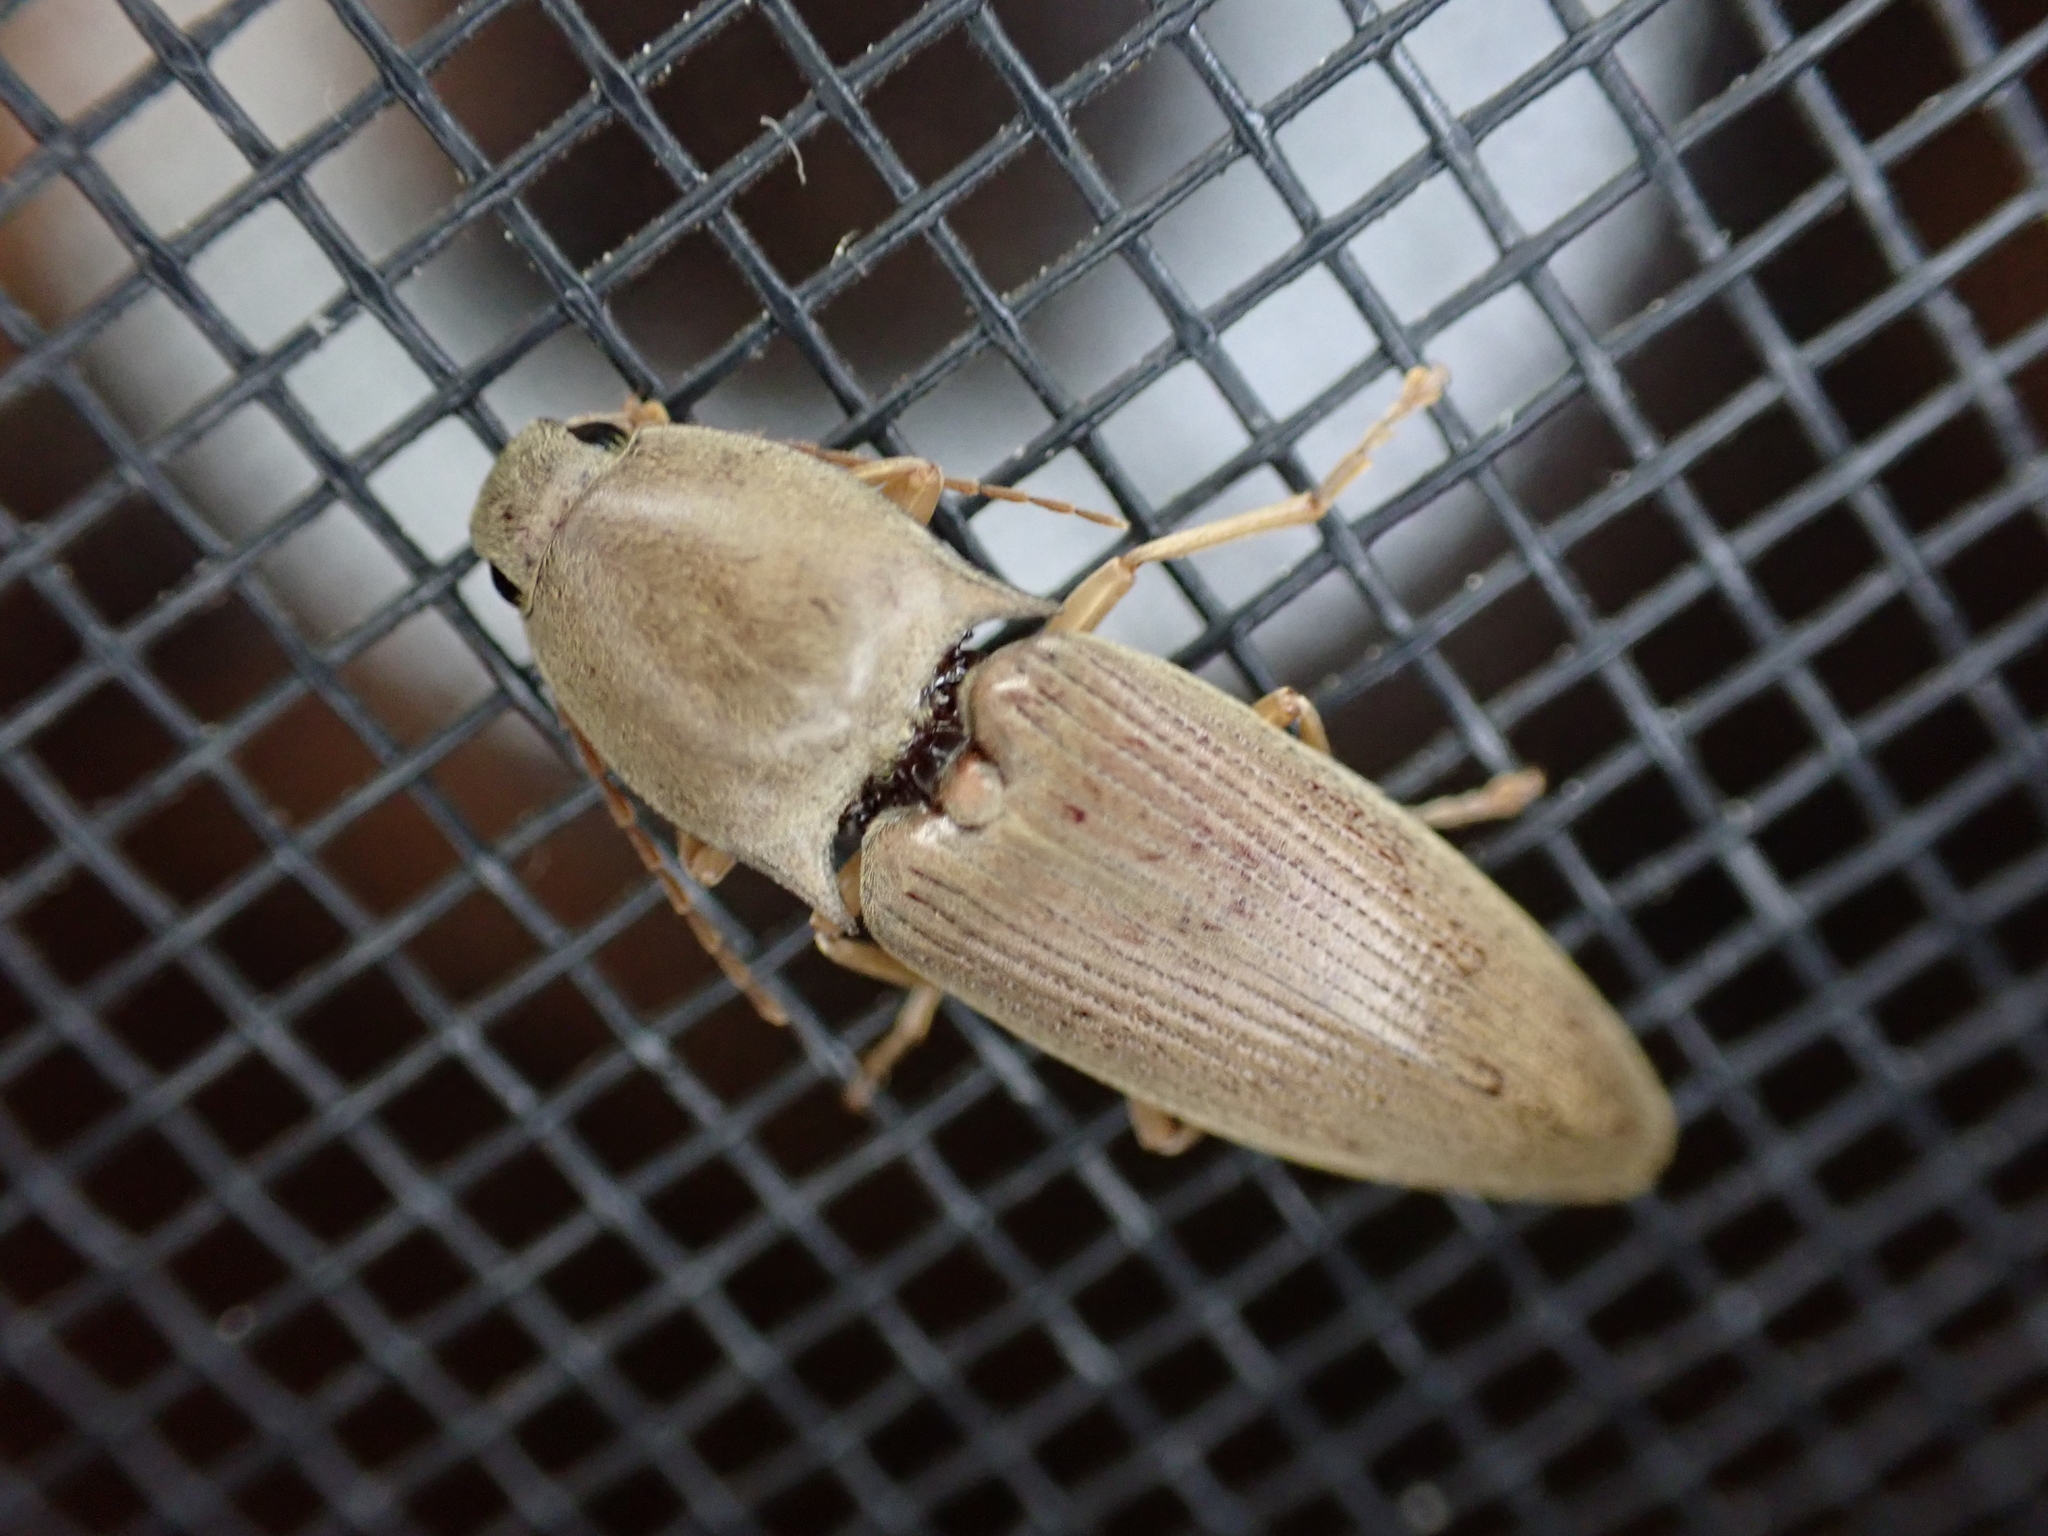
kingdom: Animalia
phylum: Arthropoda
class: Insecta
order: Coleoptera
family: Elateridae
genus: Monocrepidius
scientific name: Monocrepidius lividus
